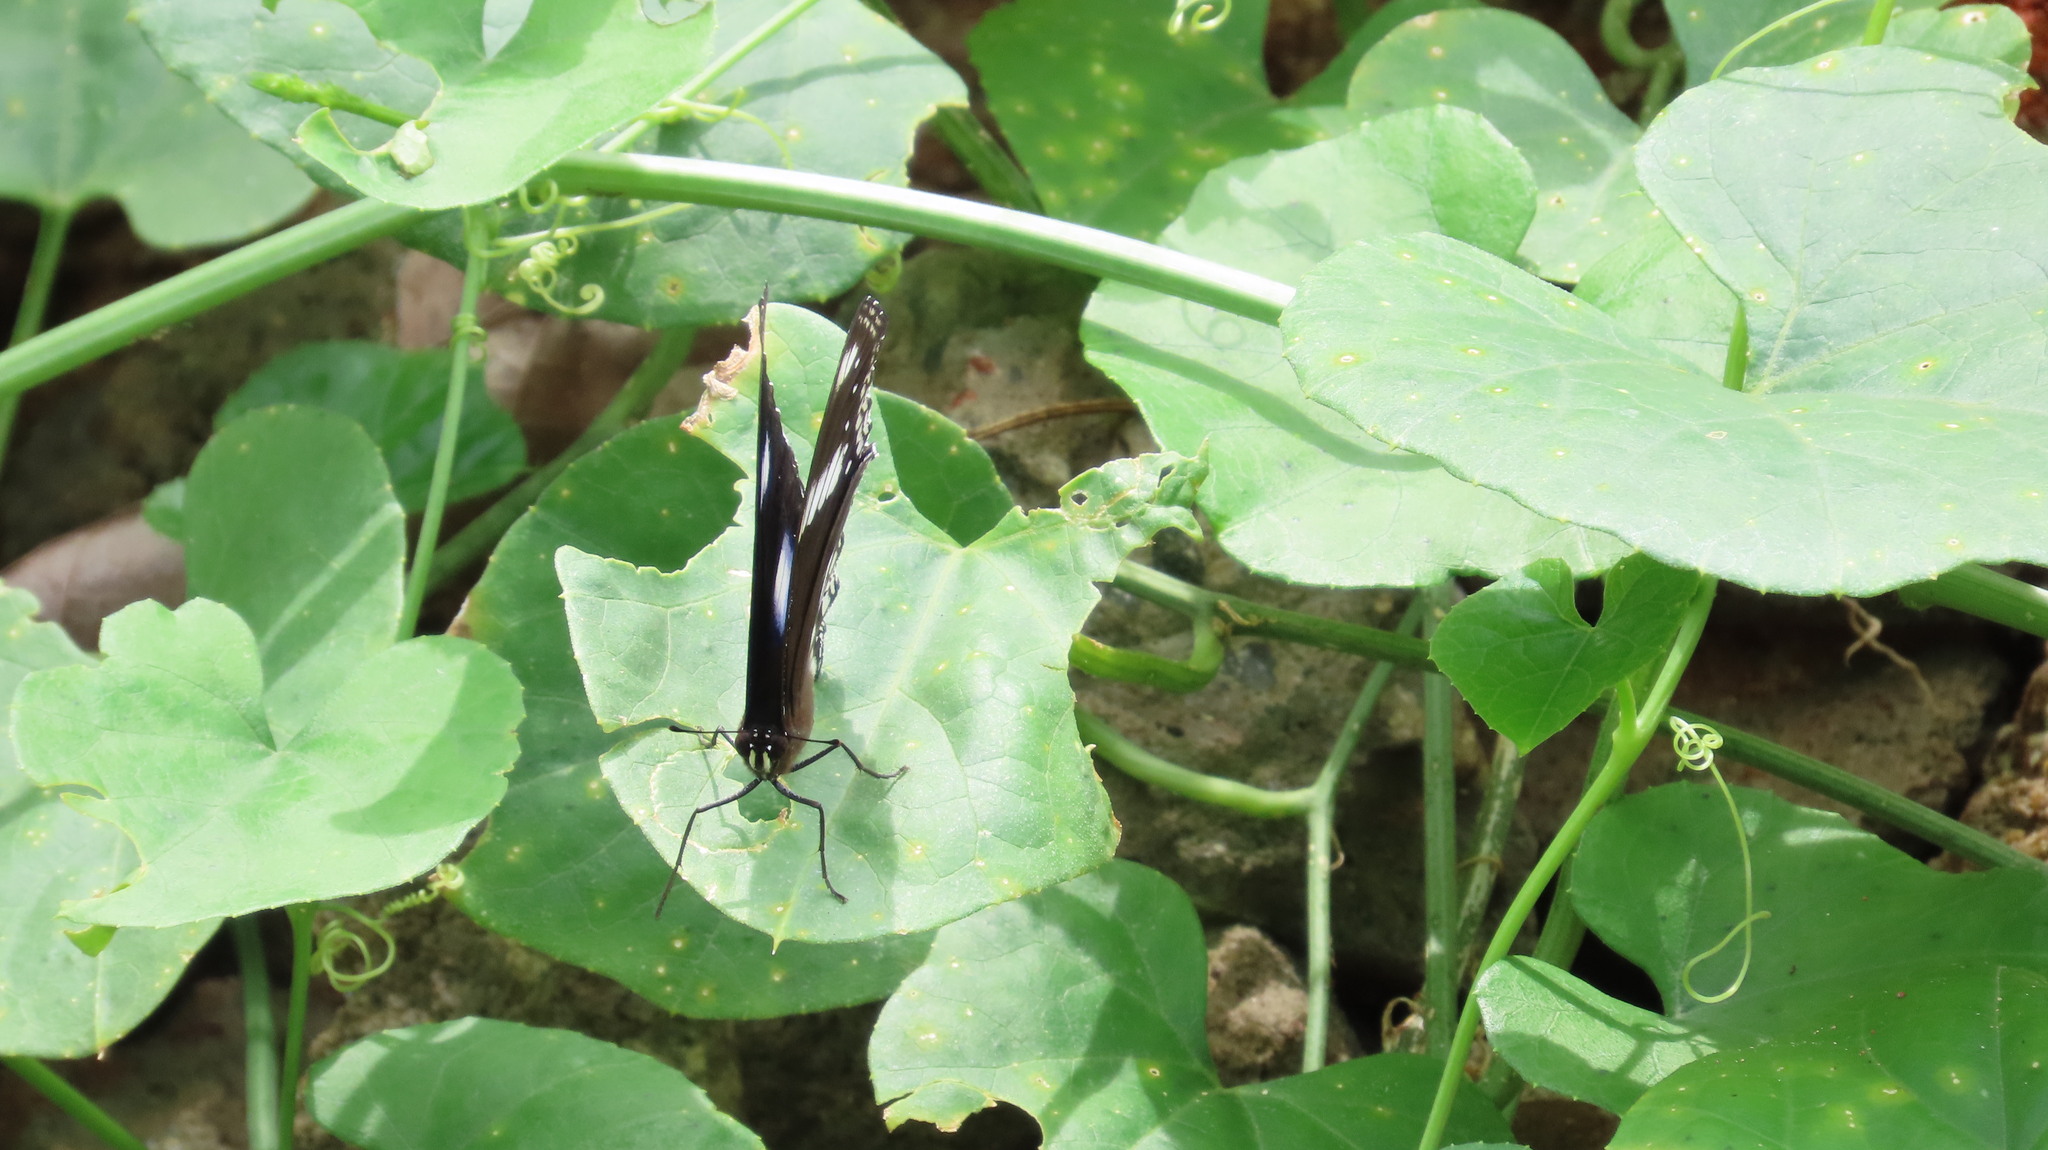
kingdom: Animalia
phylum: Arthropoda
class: Insecta
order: Lepidoptera
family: Nymphalidae
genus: Hypolimnas
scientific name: Hypolimnas bolina
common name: Great eggfly
